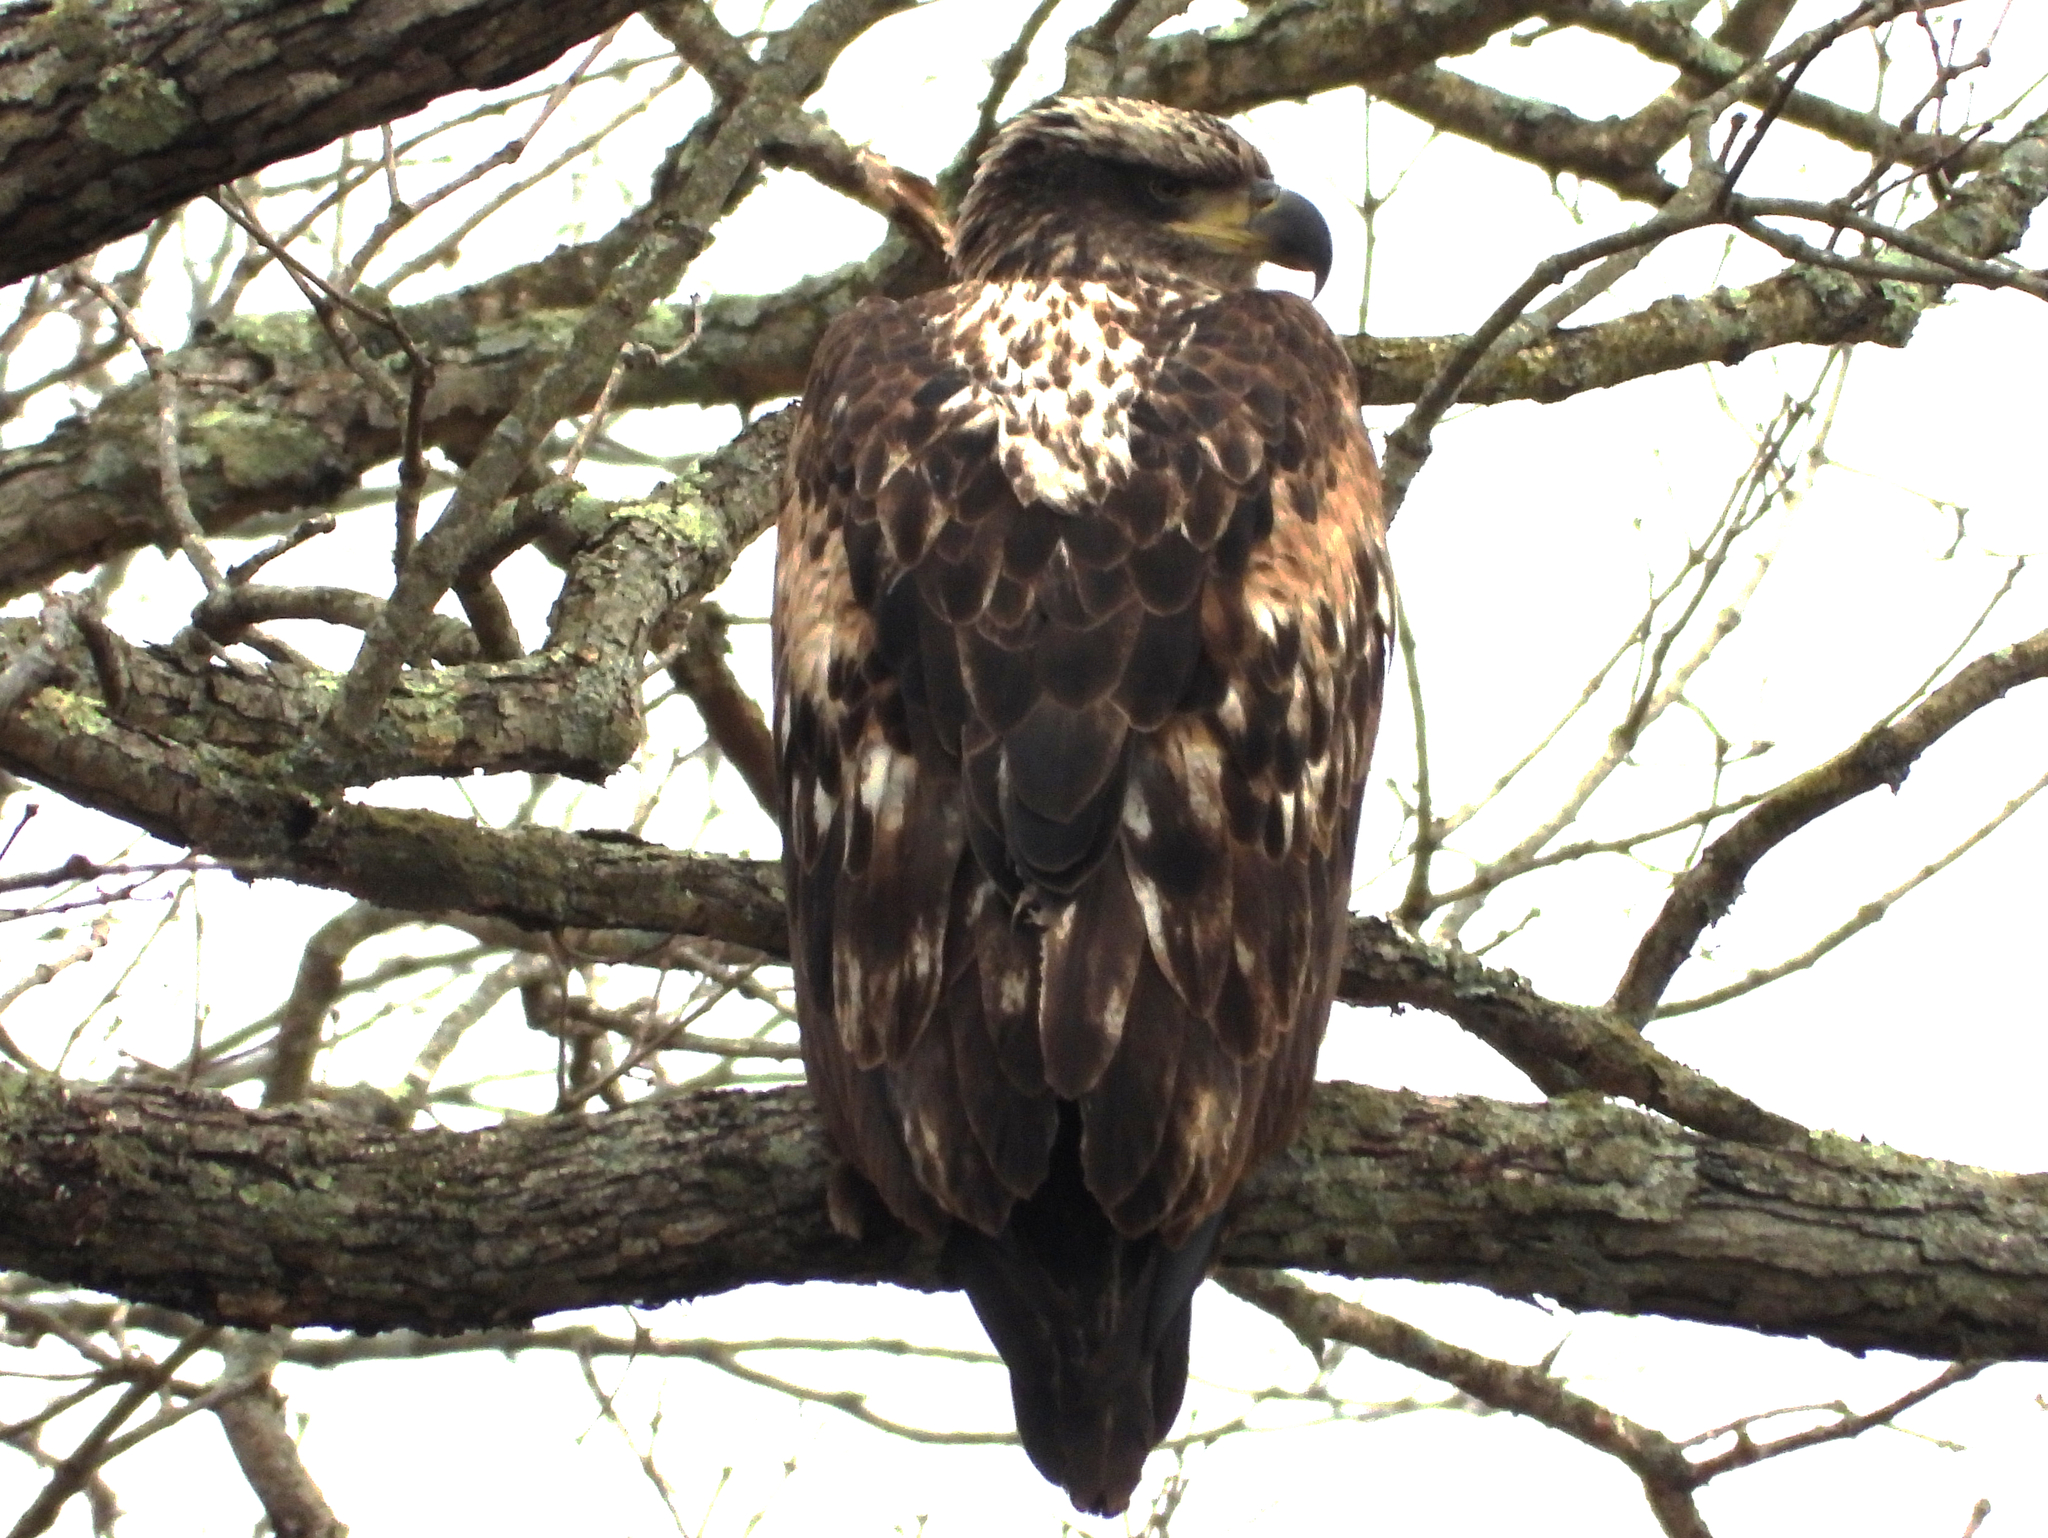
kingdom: Animalia
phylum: Chordata
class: Aves
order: Accipitriformes
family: Accipitridae
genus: Haliaeetus
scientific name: Haliaeetus leucocephalus
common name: Bald eagle
